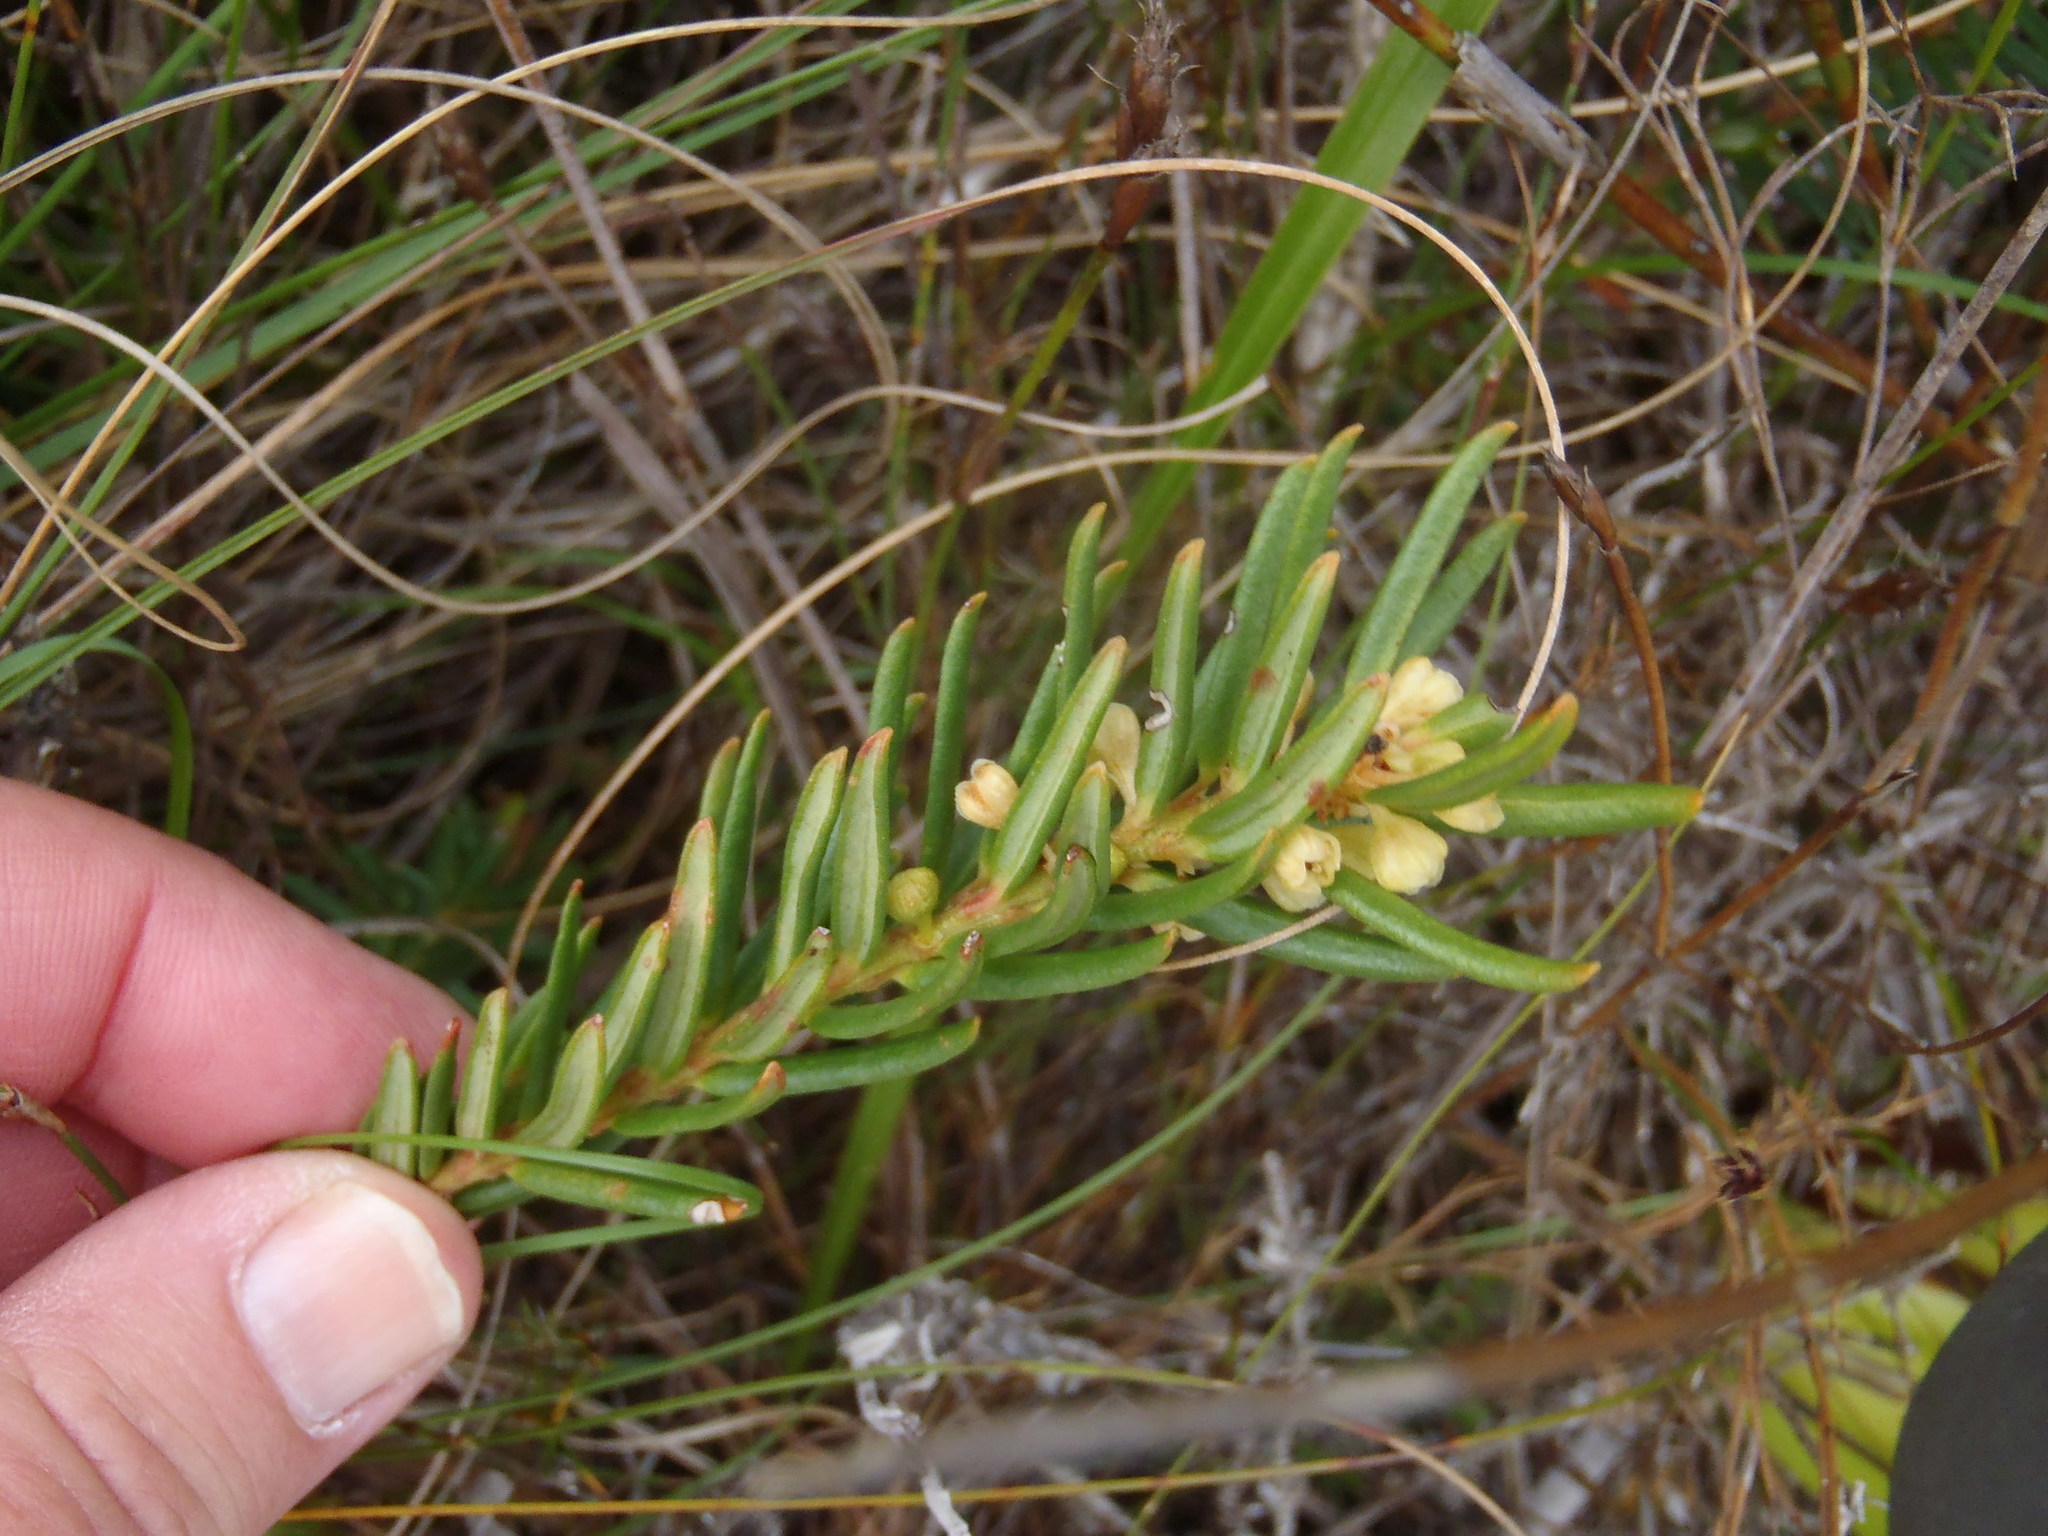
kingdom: Plantae
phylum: Tracheophyta
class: Magnoliopsida
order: Malpighiales
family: Peraceae
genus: Clutia
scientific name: Clutia polygonoides
